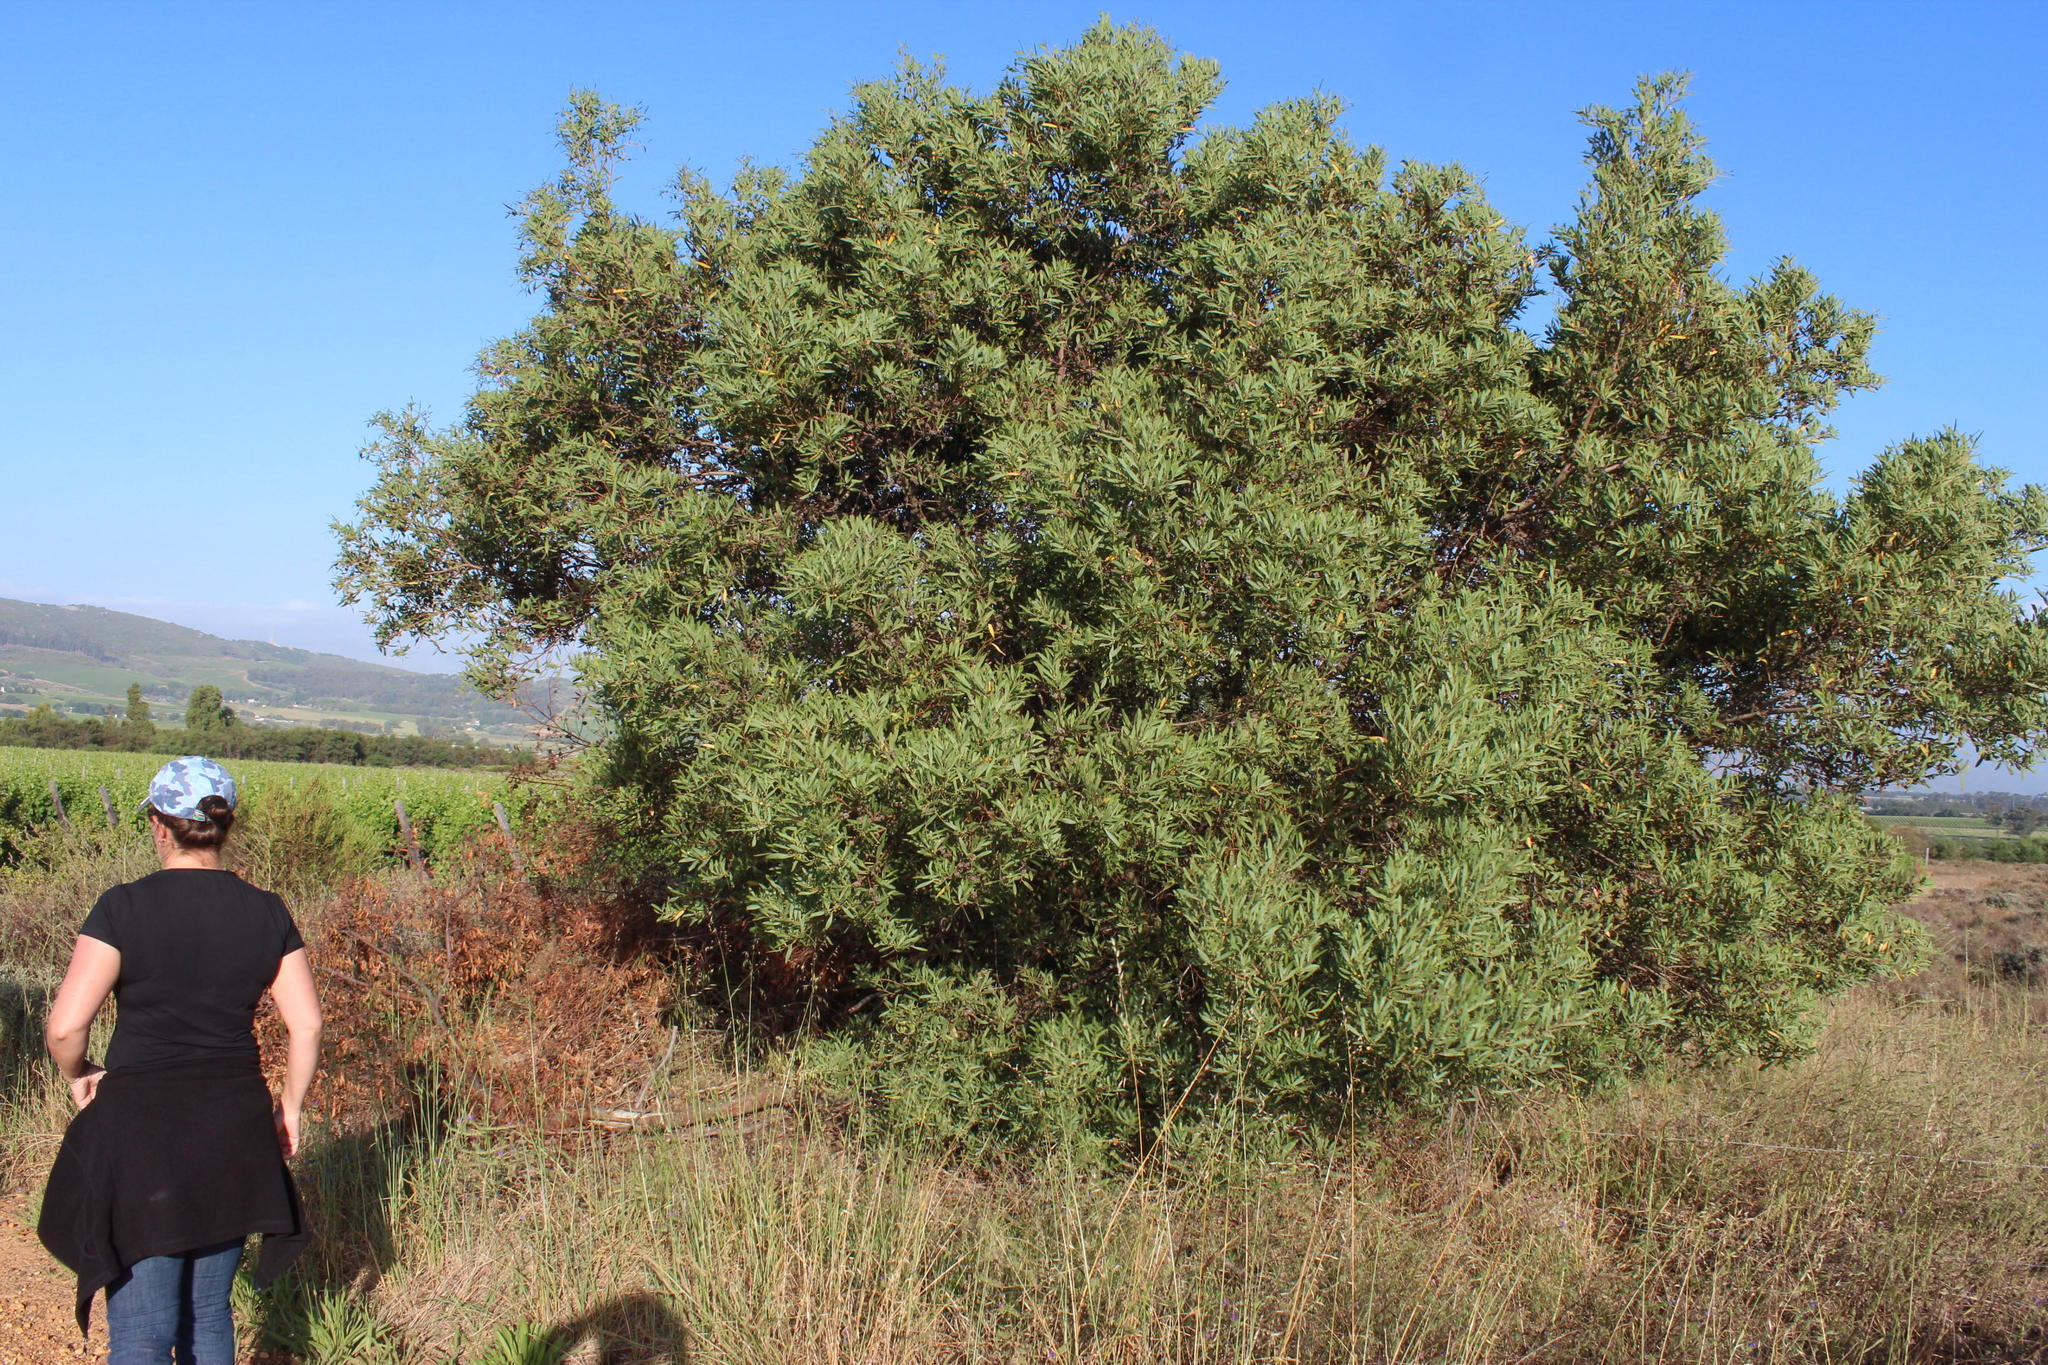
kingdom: Plantae
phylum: Tracheophyta
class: Magnoliopsida
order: Fabales
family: Fabaceae
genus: Acacia
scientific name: Acacia cyclops
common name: Coastal wattle
